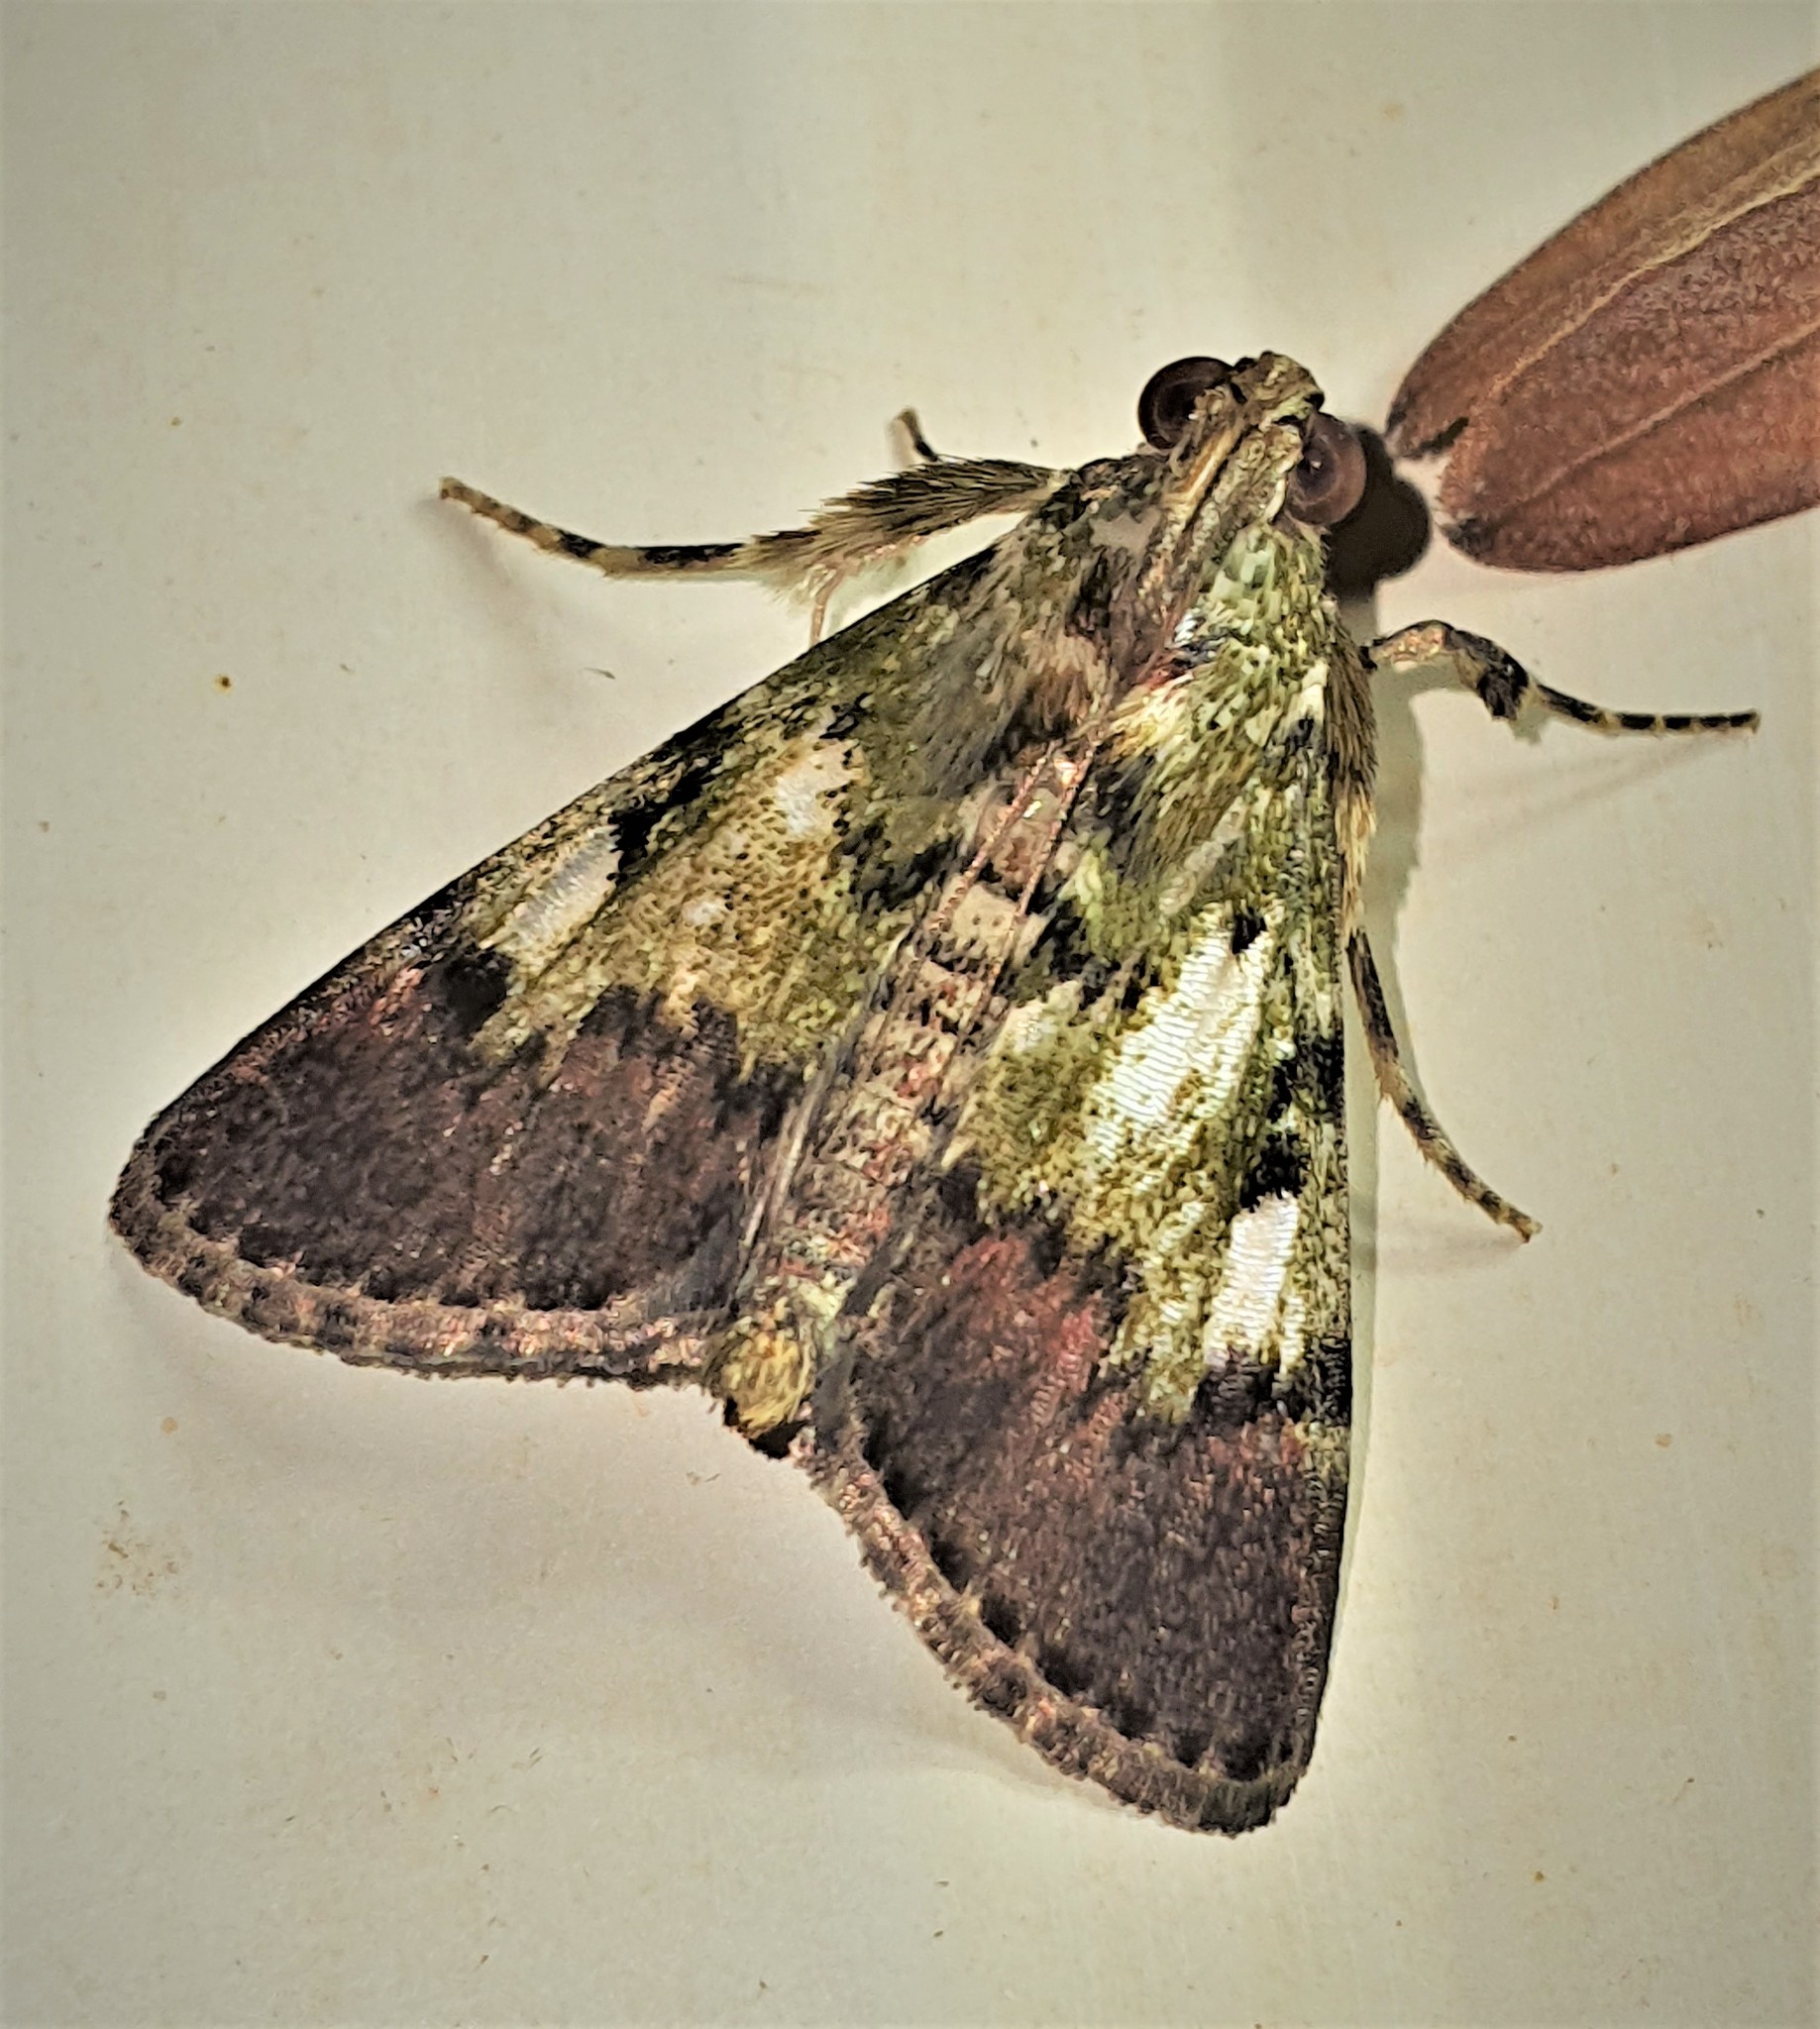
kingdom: Animalia
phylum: Arthropoda
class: Insecta
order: Lepidoptera
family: Pyralidae
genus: Macalla
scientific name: Macalla niveorufa
